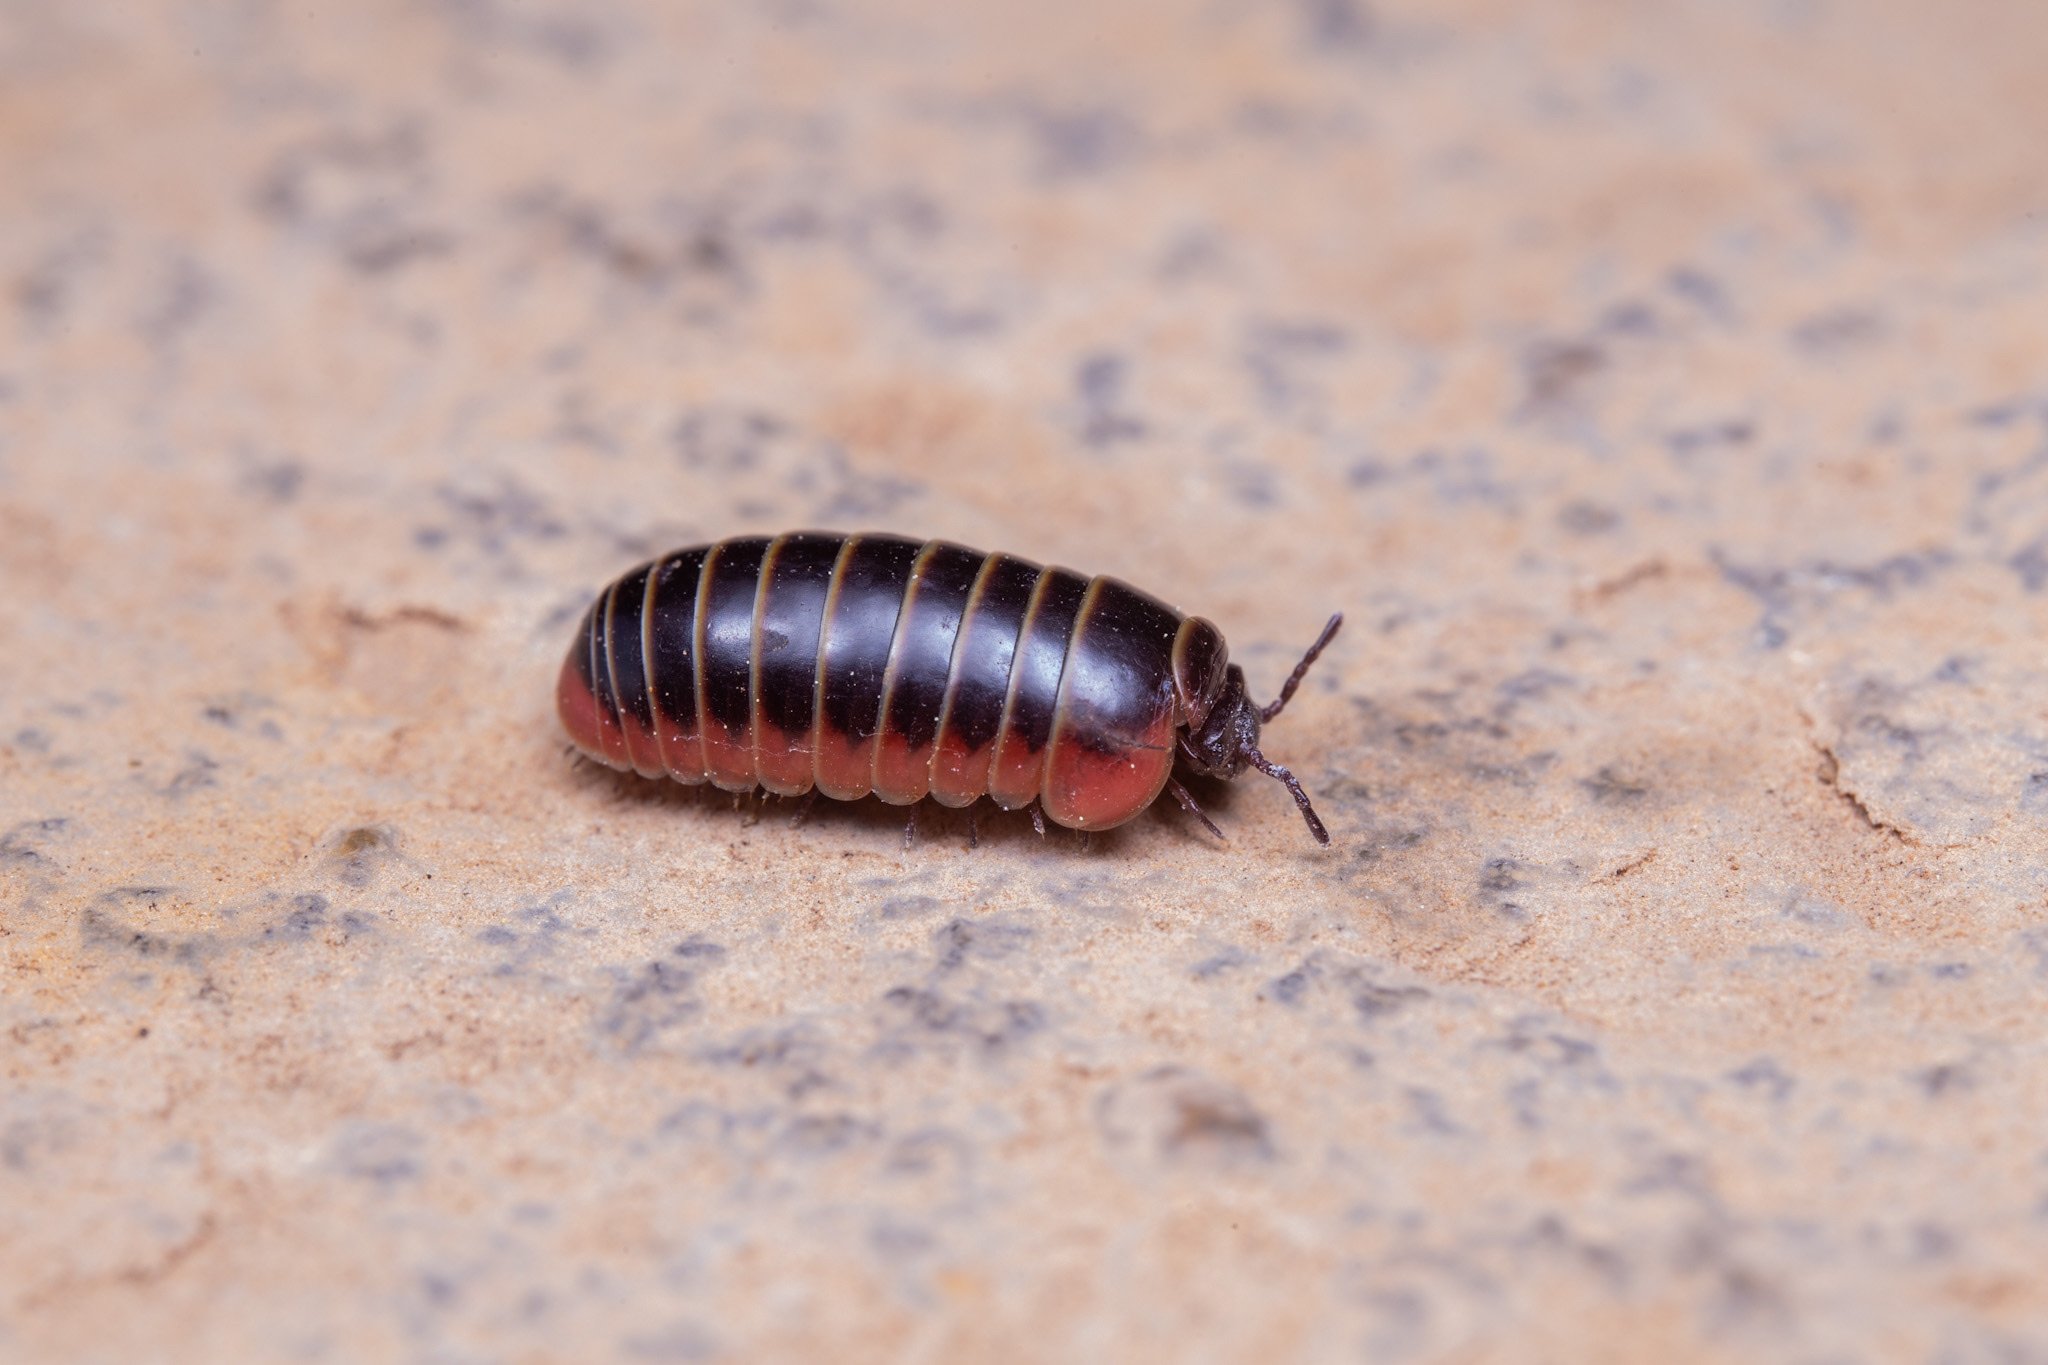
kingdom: Animalia
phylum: Arthropoda
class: Diplopoda
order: Glomerida
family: Glomeridae
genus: Glomeris
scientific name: Glomeris balcanica
